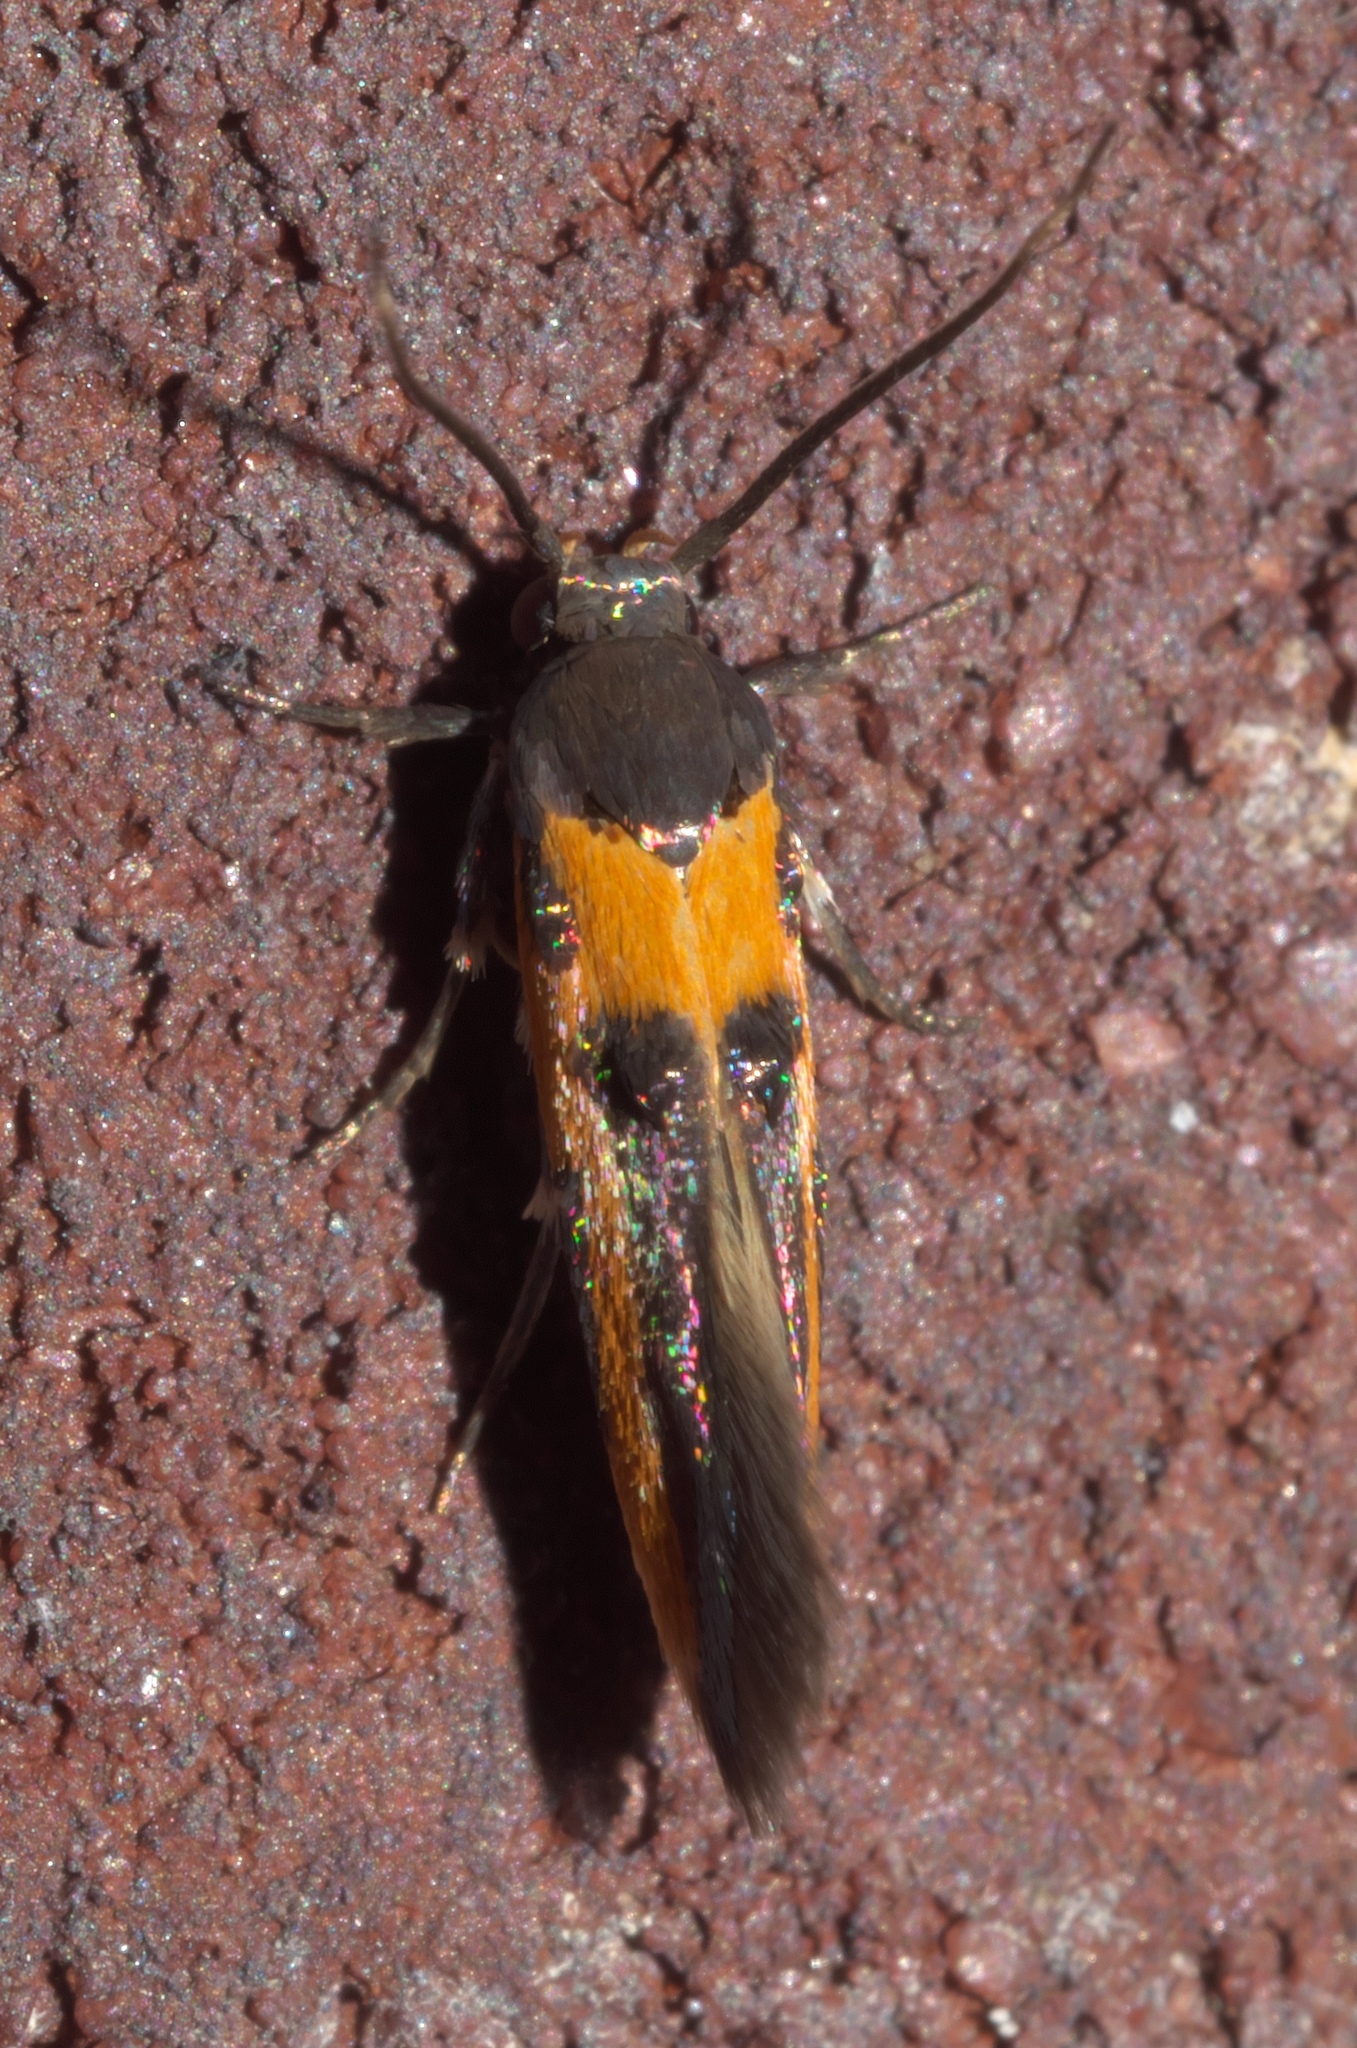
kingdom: Animalia
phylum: Arthropoda
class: Insecta
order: Lepidoptera
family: Cosmopterigidae
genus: Euclemensia
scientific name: Euclemensia bassettella
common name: Kermes scale moth
